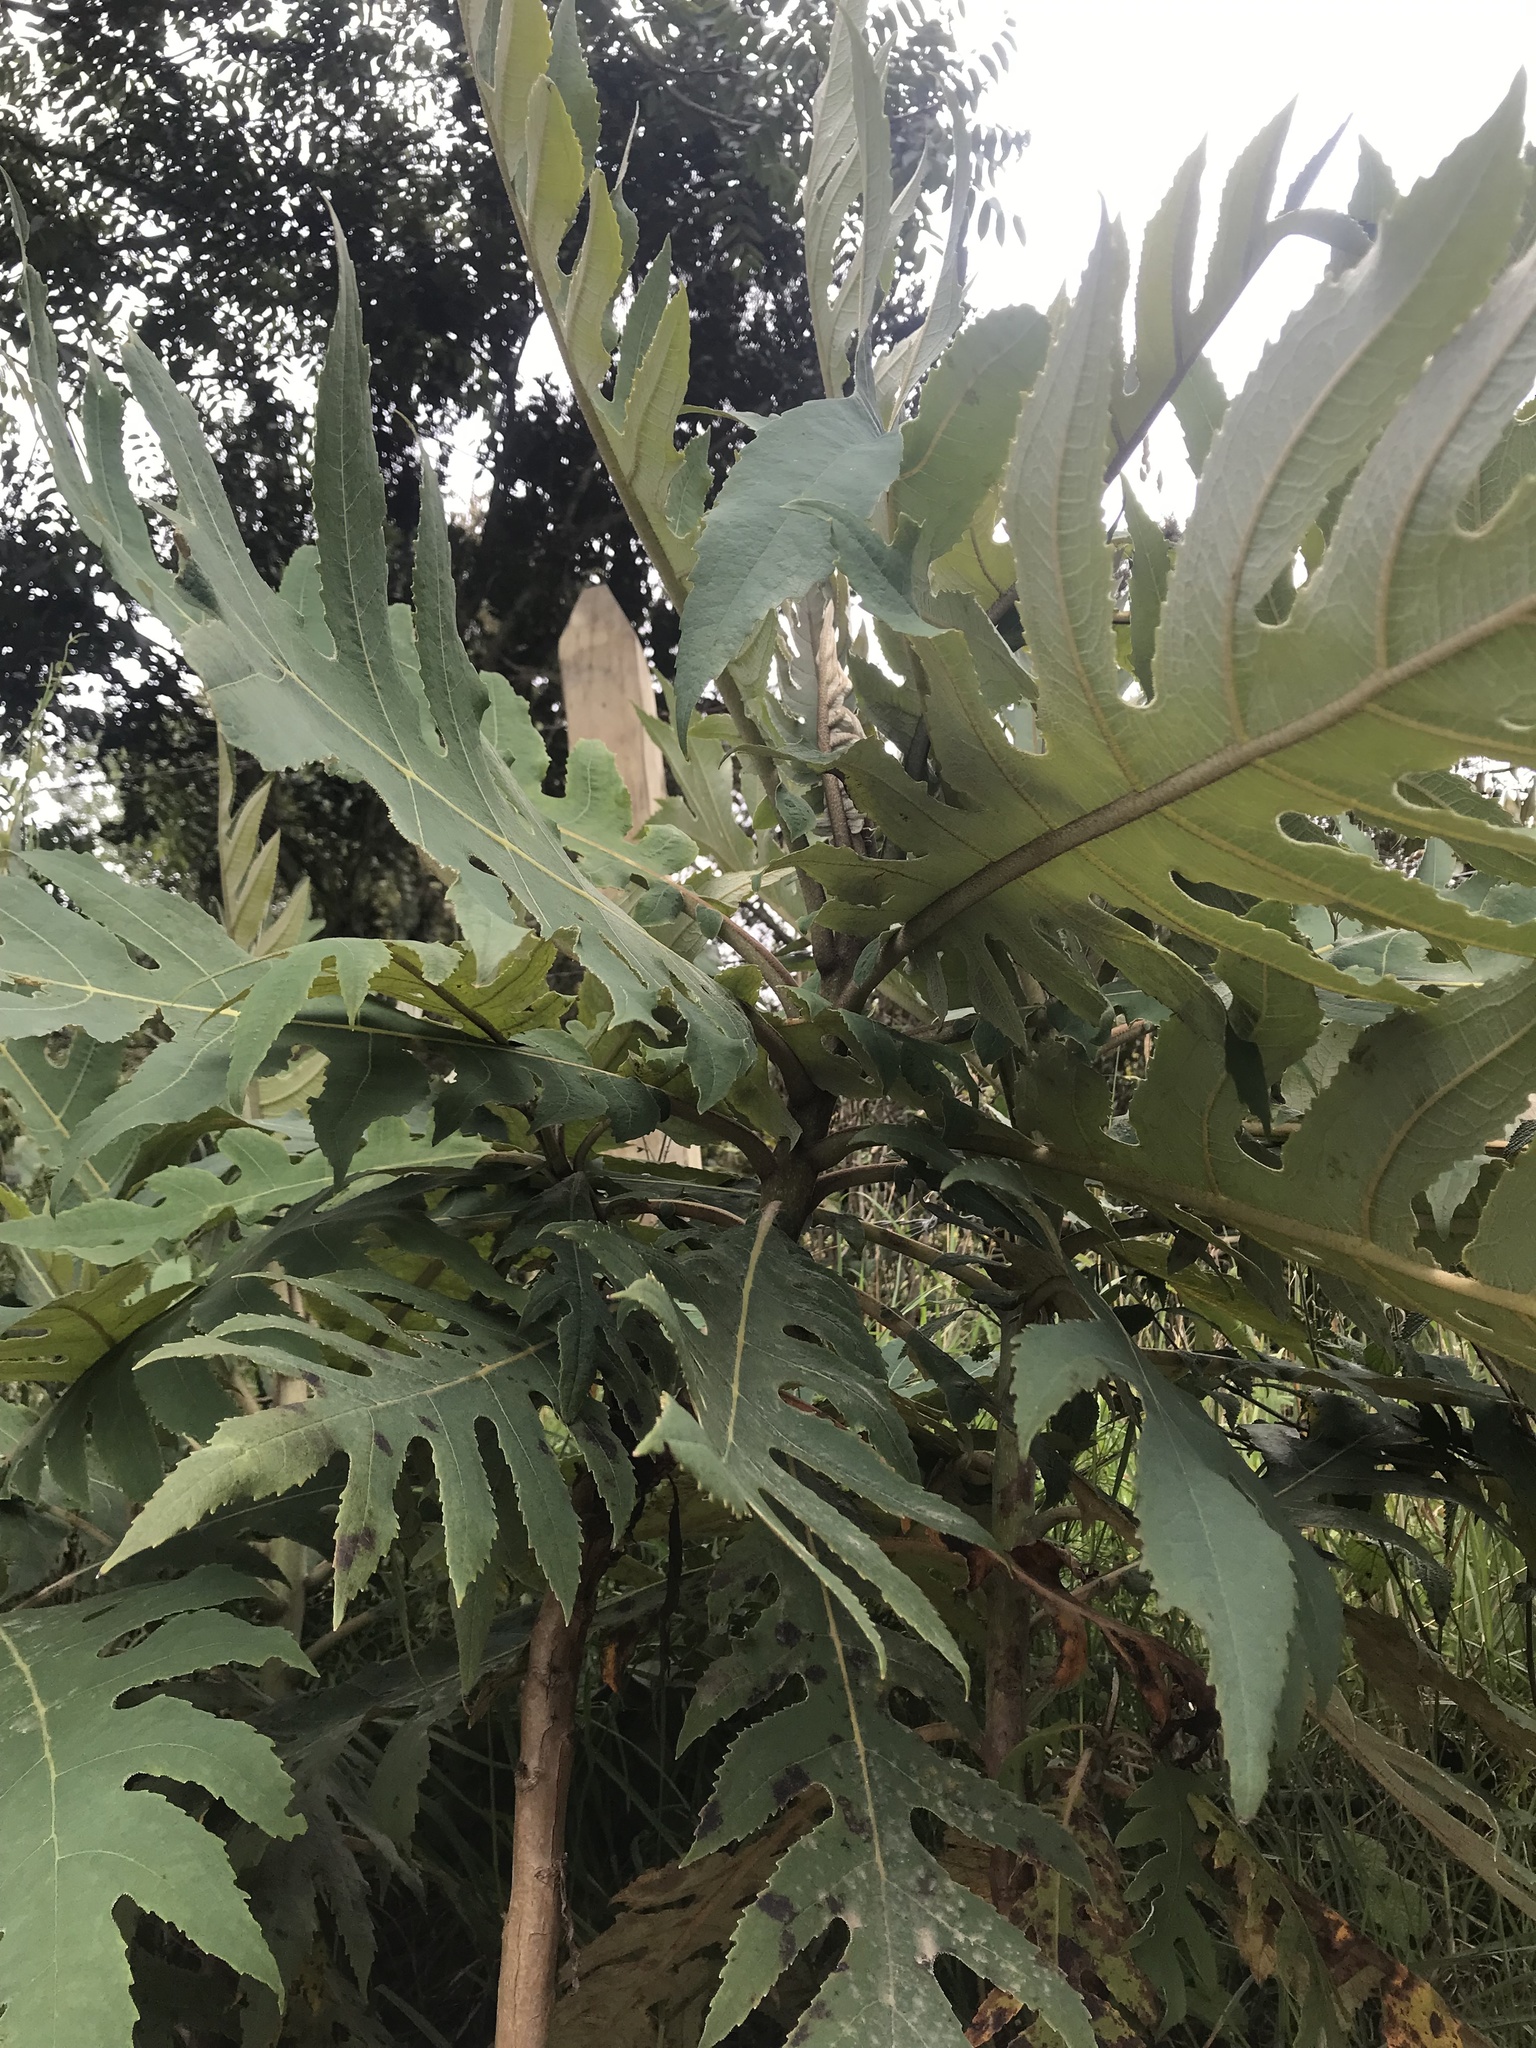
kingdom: Plantae
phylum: Tracheophyta
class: Magnoliopsida
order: Ranunculales
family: Papaveraceae
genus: Bocconia
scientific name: Bocconia frutescens
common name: Tree poppy
